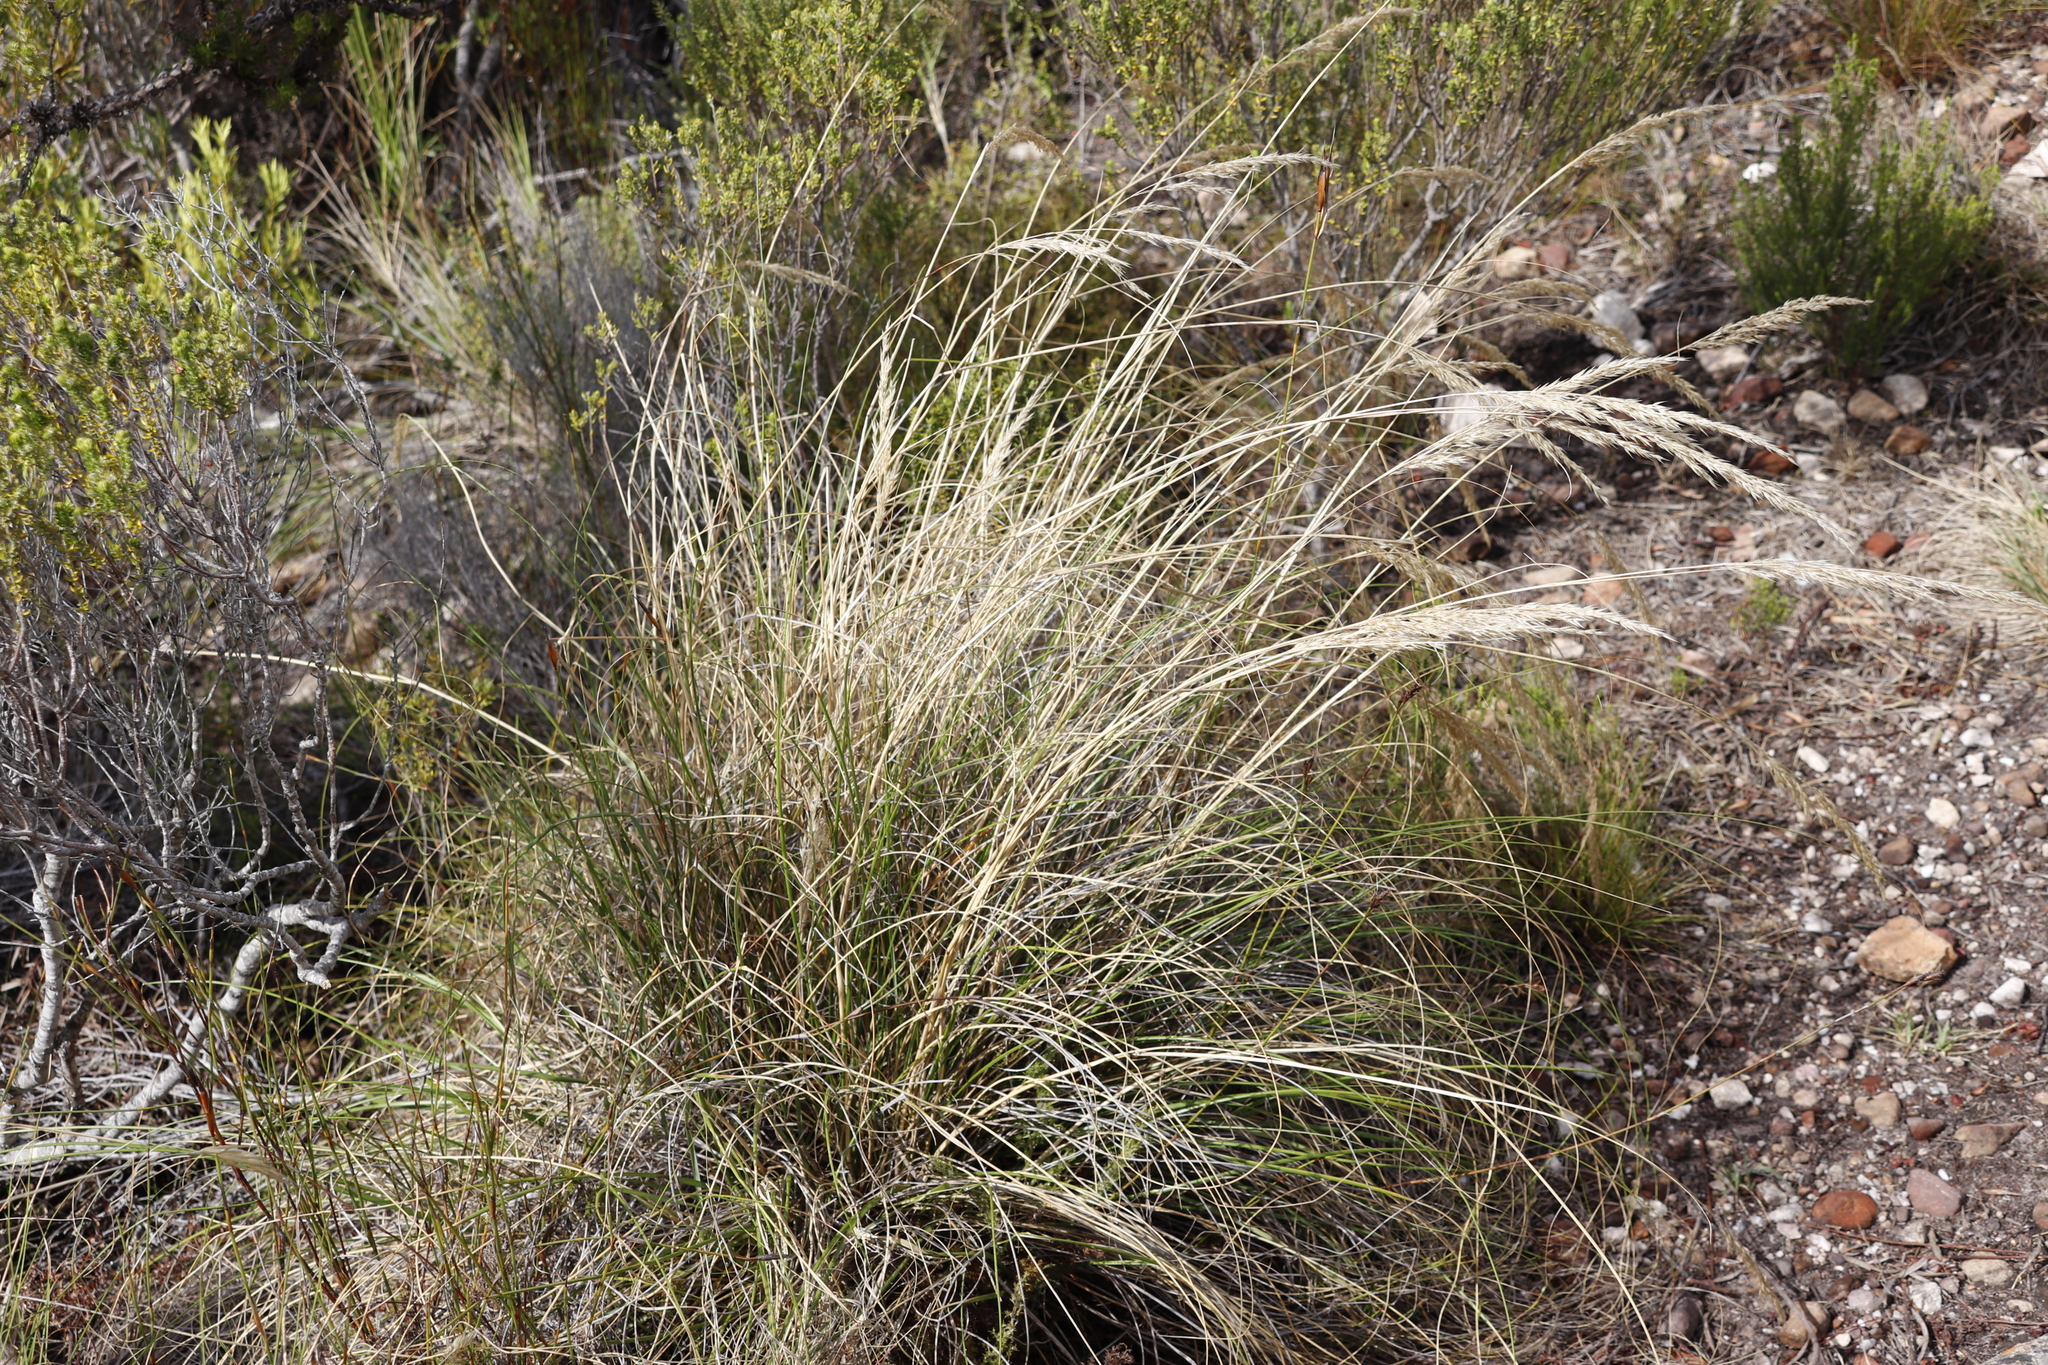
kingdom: Plantae
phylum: Tracheophyta
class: Liliopsida
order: Poales
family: Poaceae
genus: Pentameris
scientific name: Pentameris eriostoma
